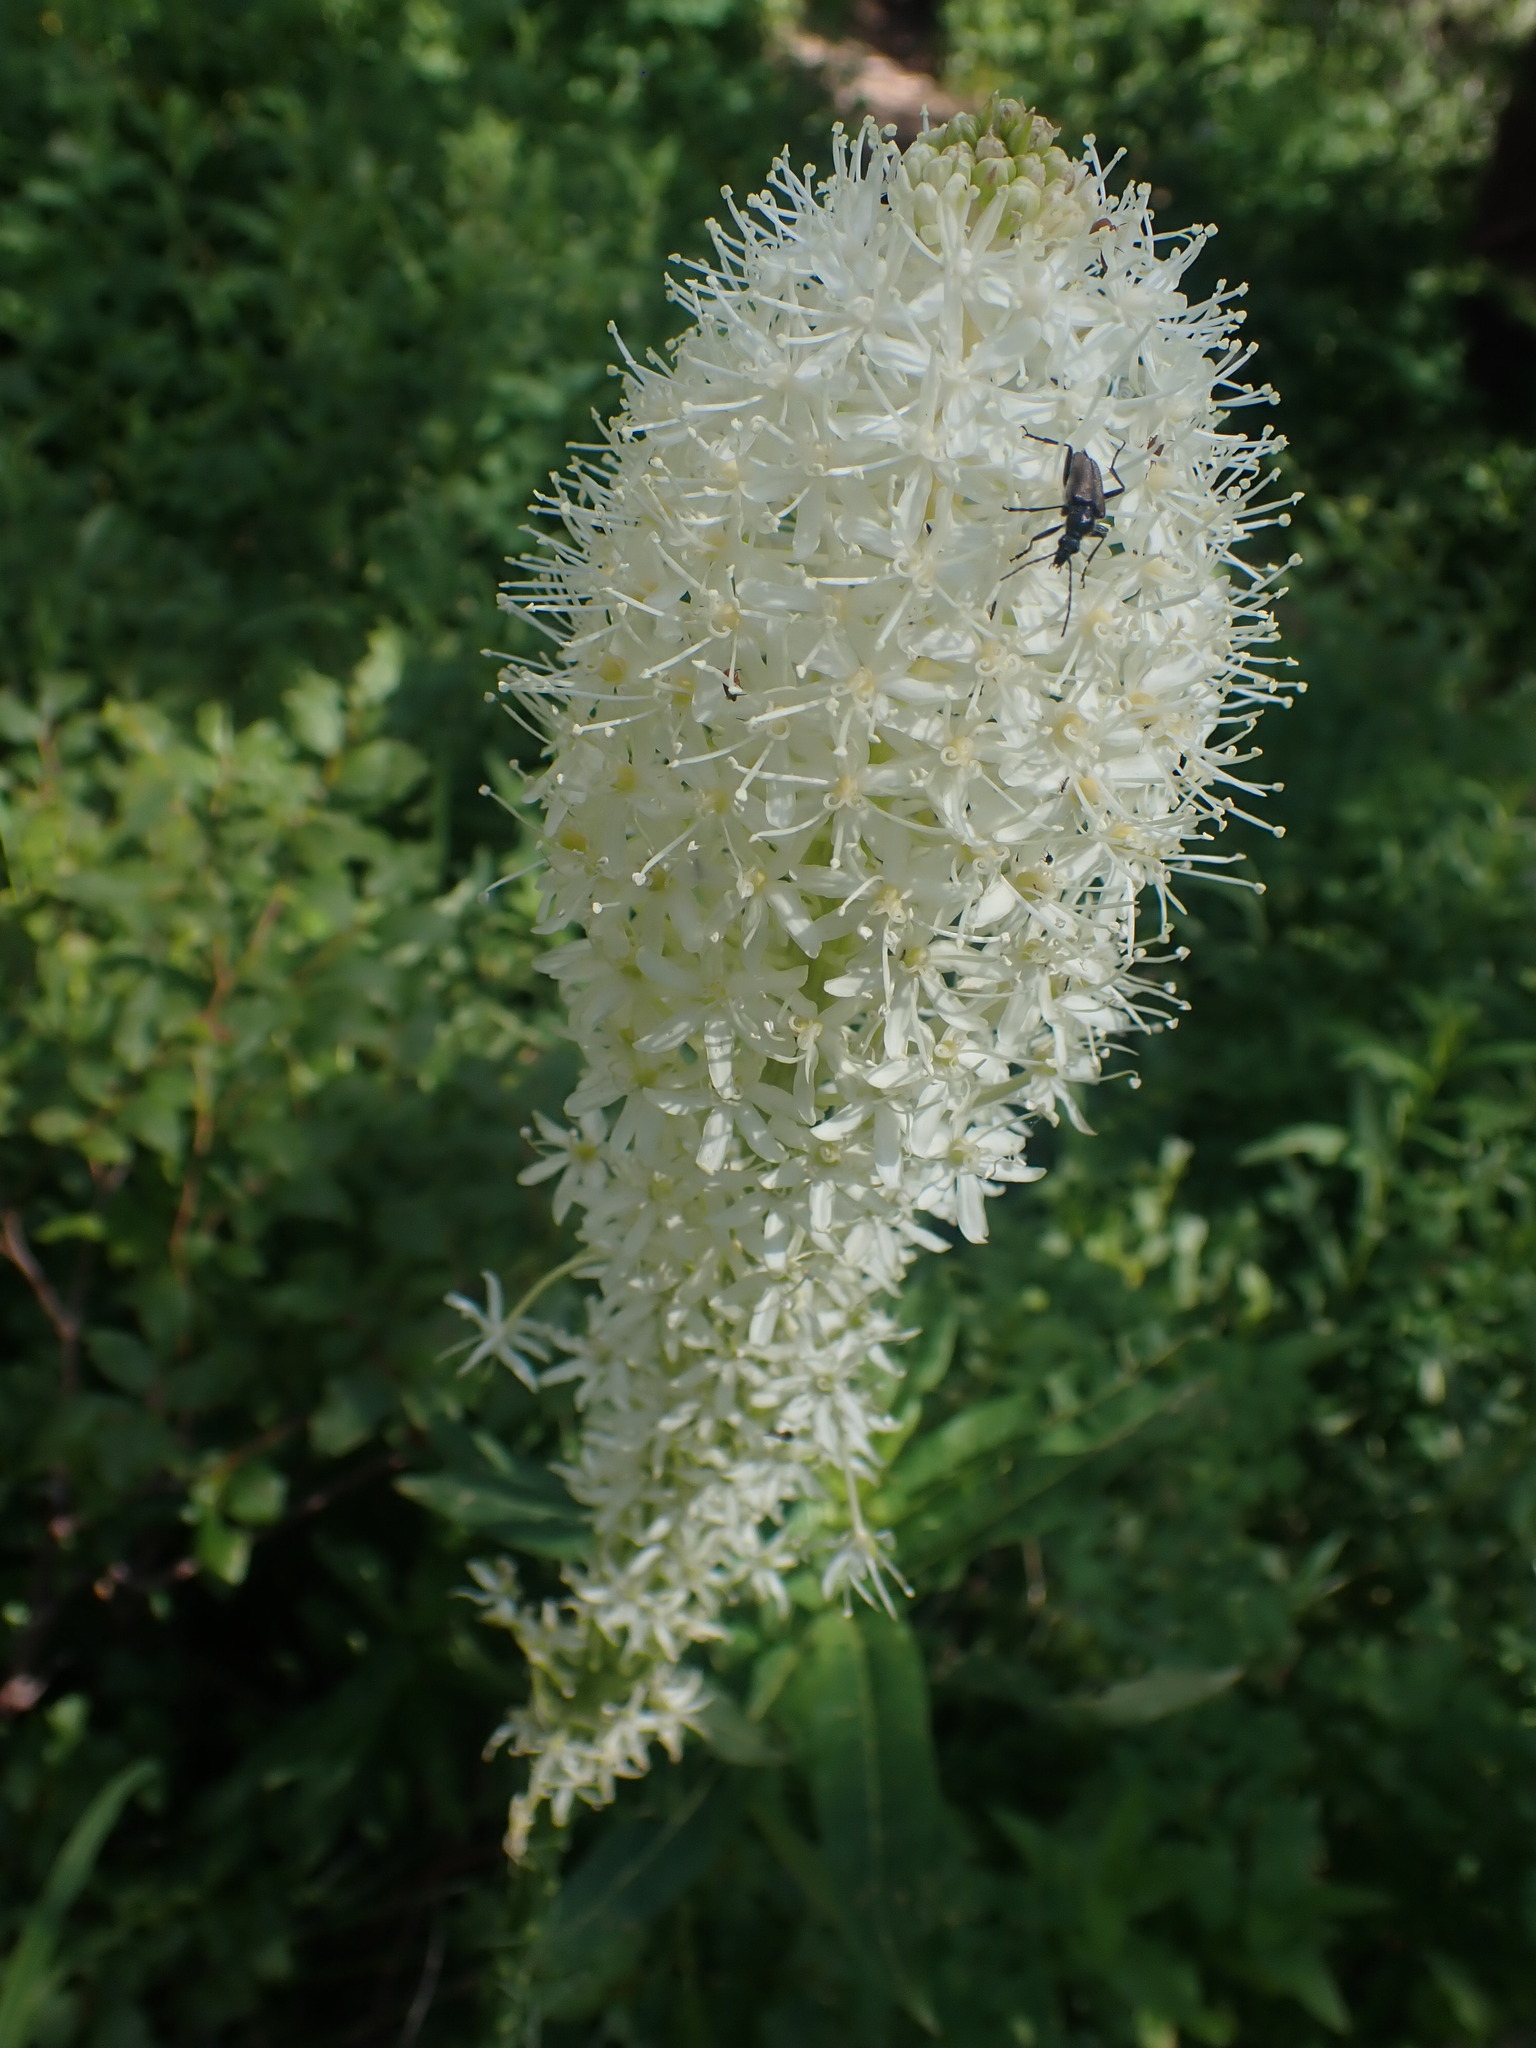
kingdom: Plantae
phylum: Tracheophyta
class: Liliopsida
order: Liliales
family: Melanthiaceae
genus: Xerophyllum
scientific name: Xerophyllum tenax
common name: Bear-grass
